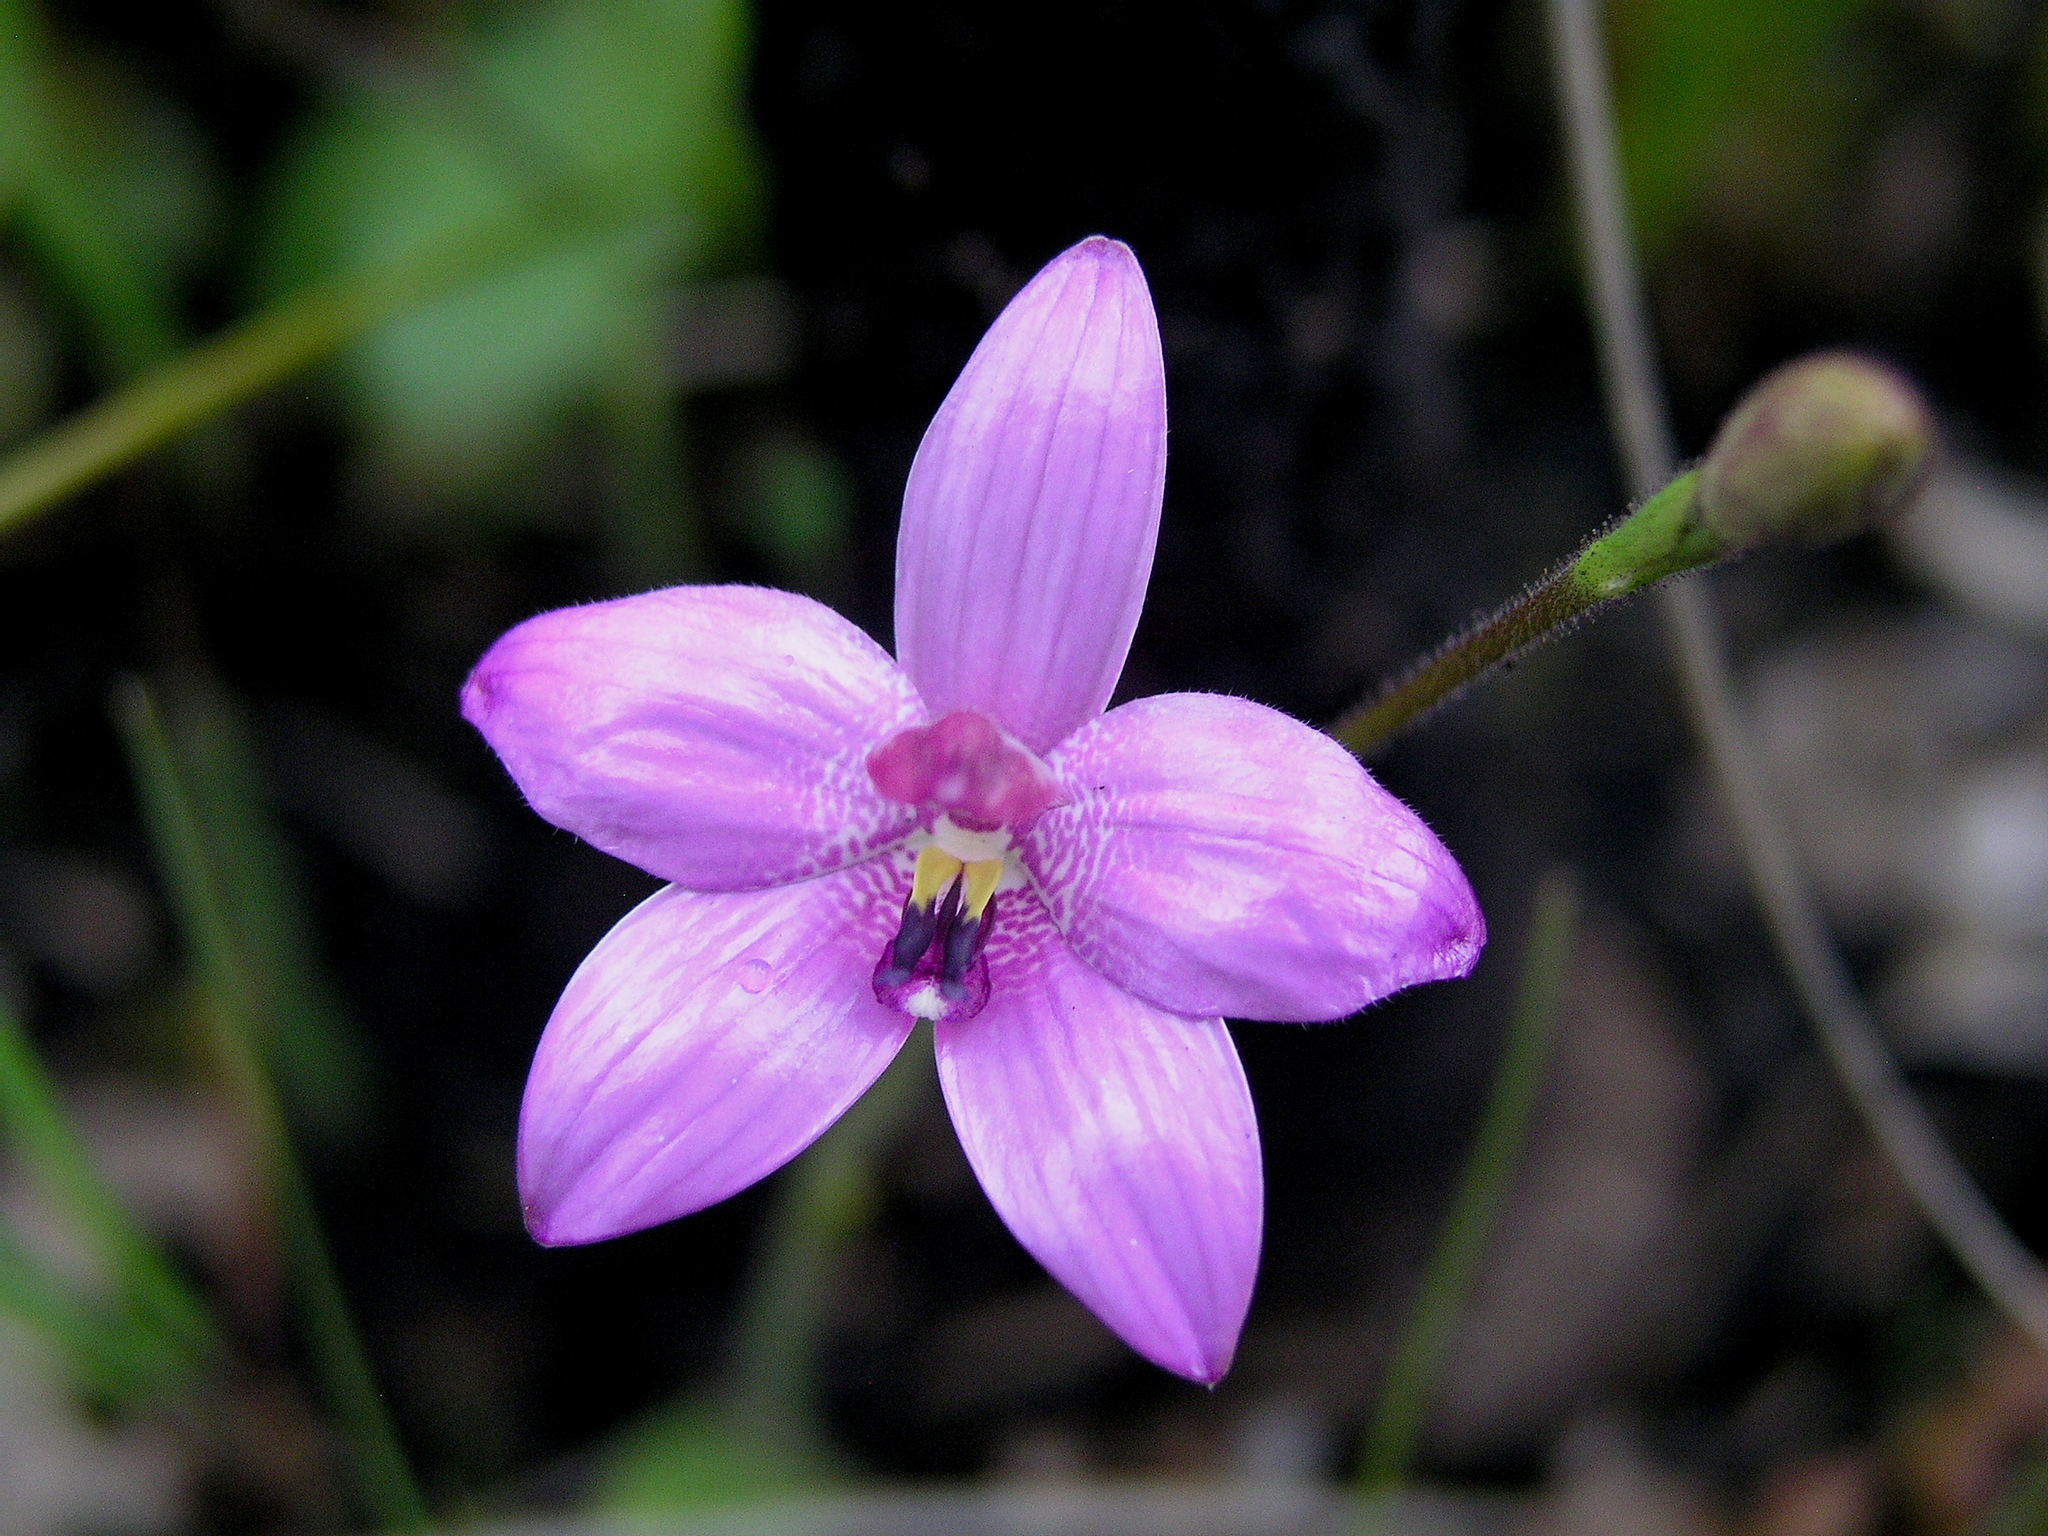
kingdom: Plantae
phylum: Tracheophyta
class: Liliopsida
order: Asparagales
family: Orchidaceae
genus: Caladenia
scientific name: Caladenia emarginata
